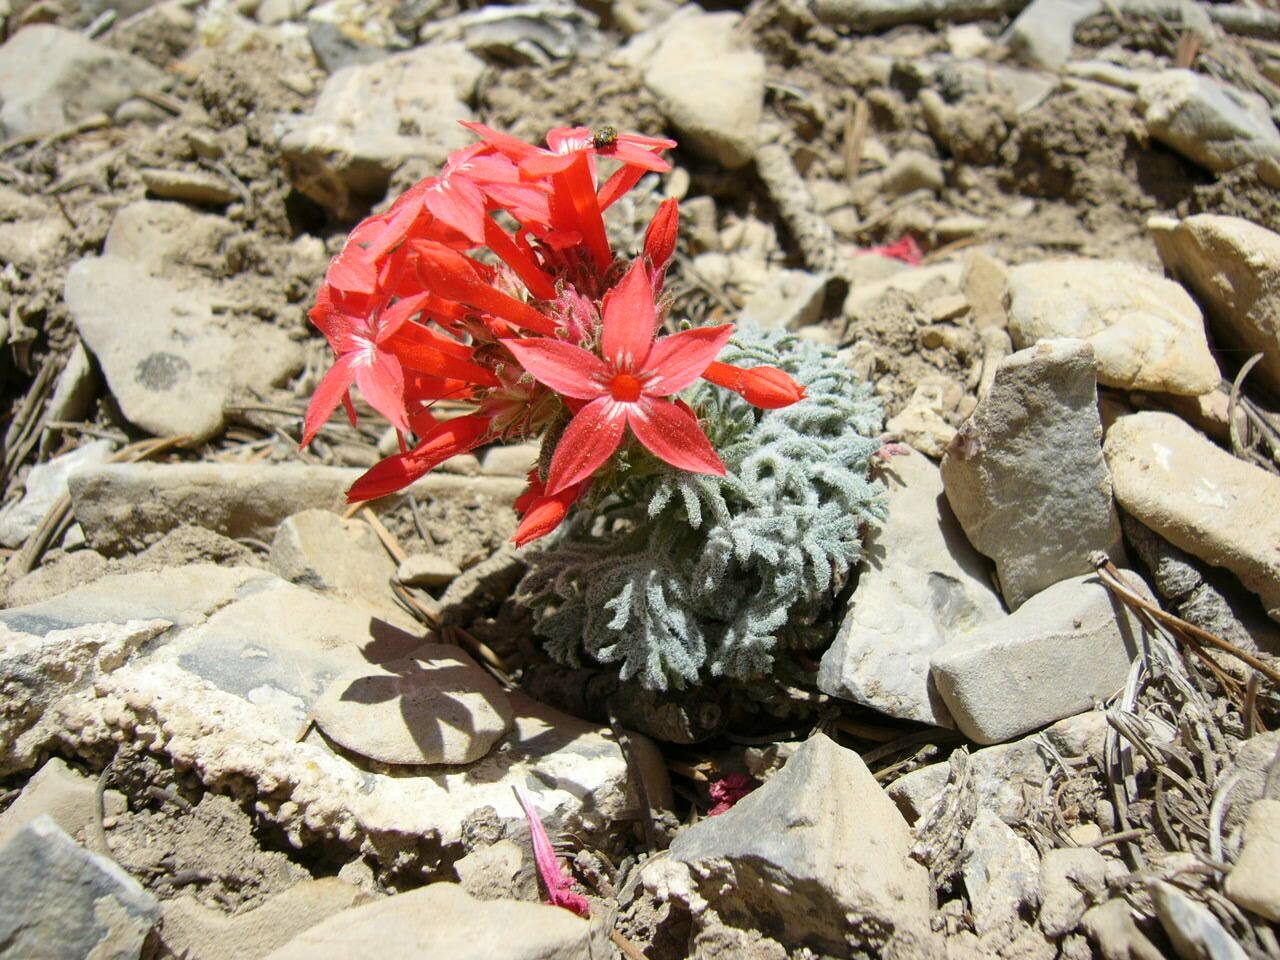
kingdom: Plantae
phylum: Tracheophyta
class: Magnoliopsida
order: Ericales
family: Polemoniaceae
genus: Ipomopsis
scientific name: Ipomopsis arizonica
